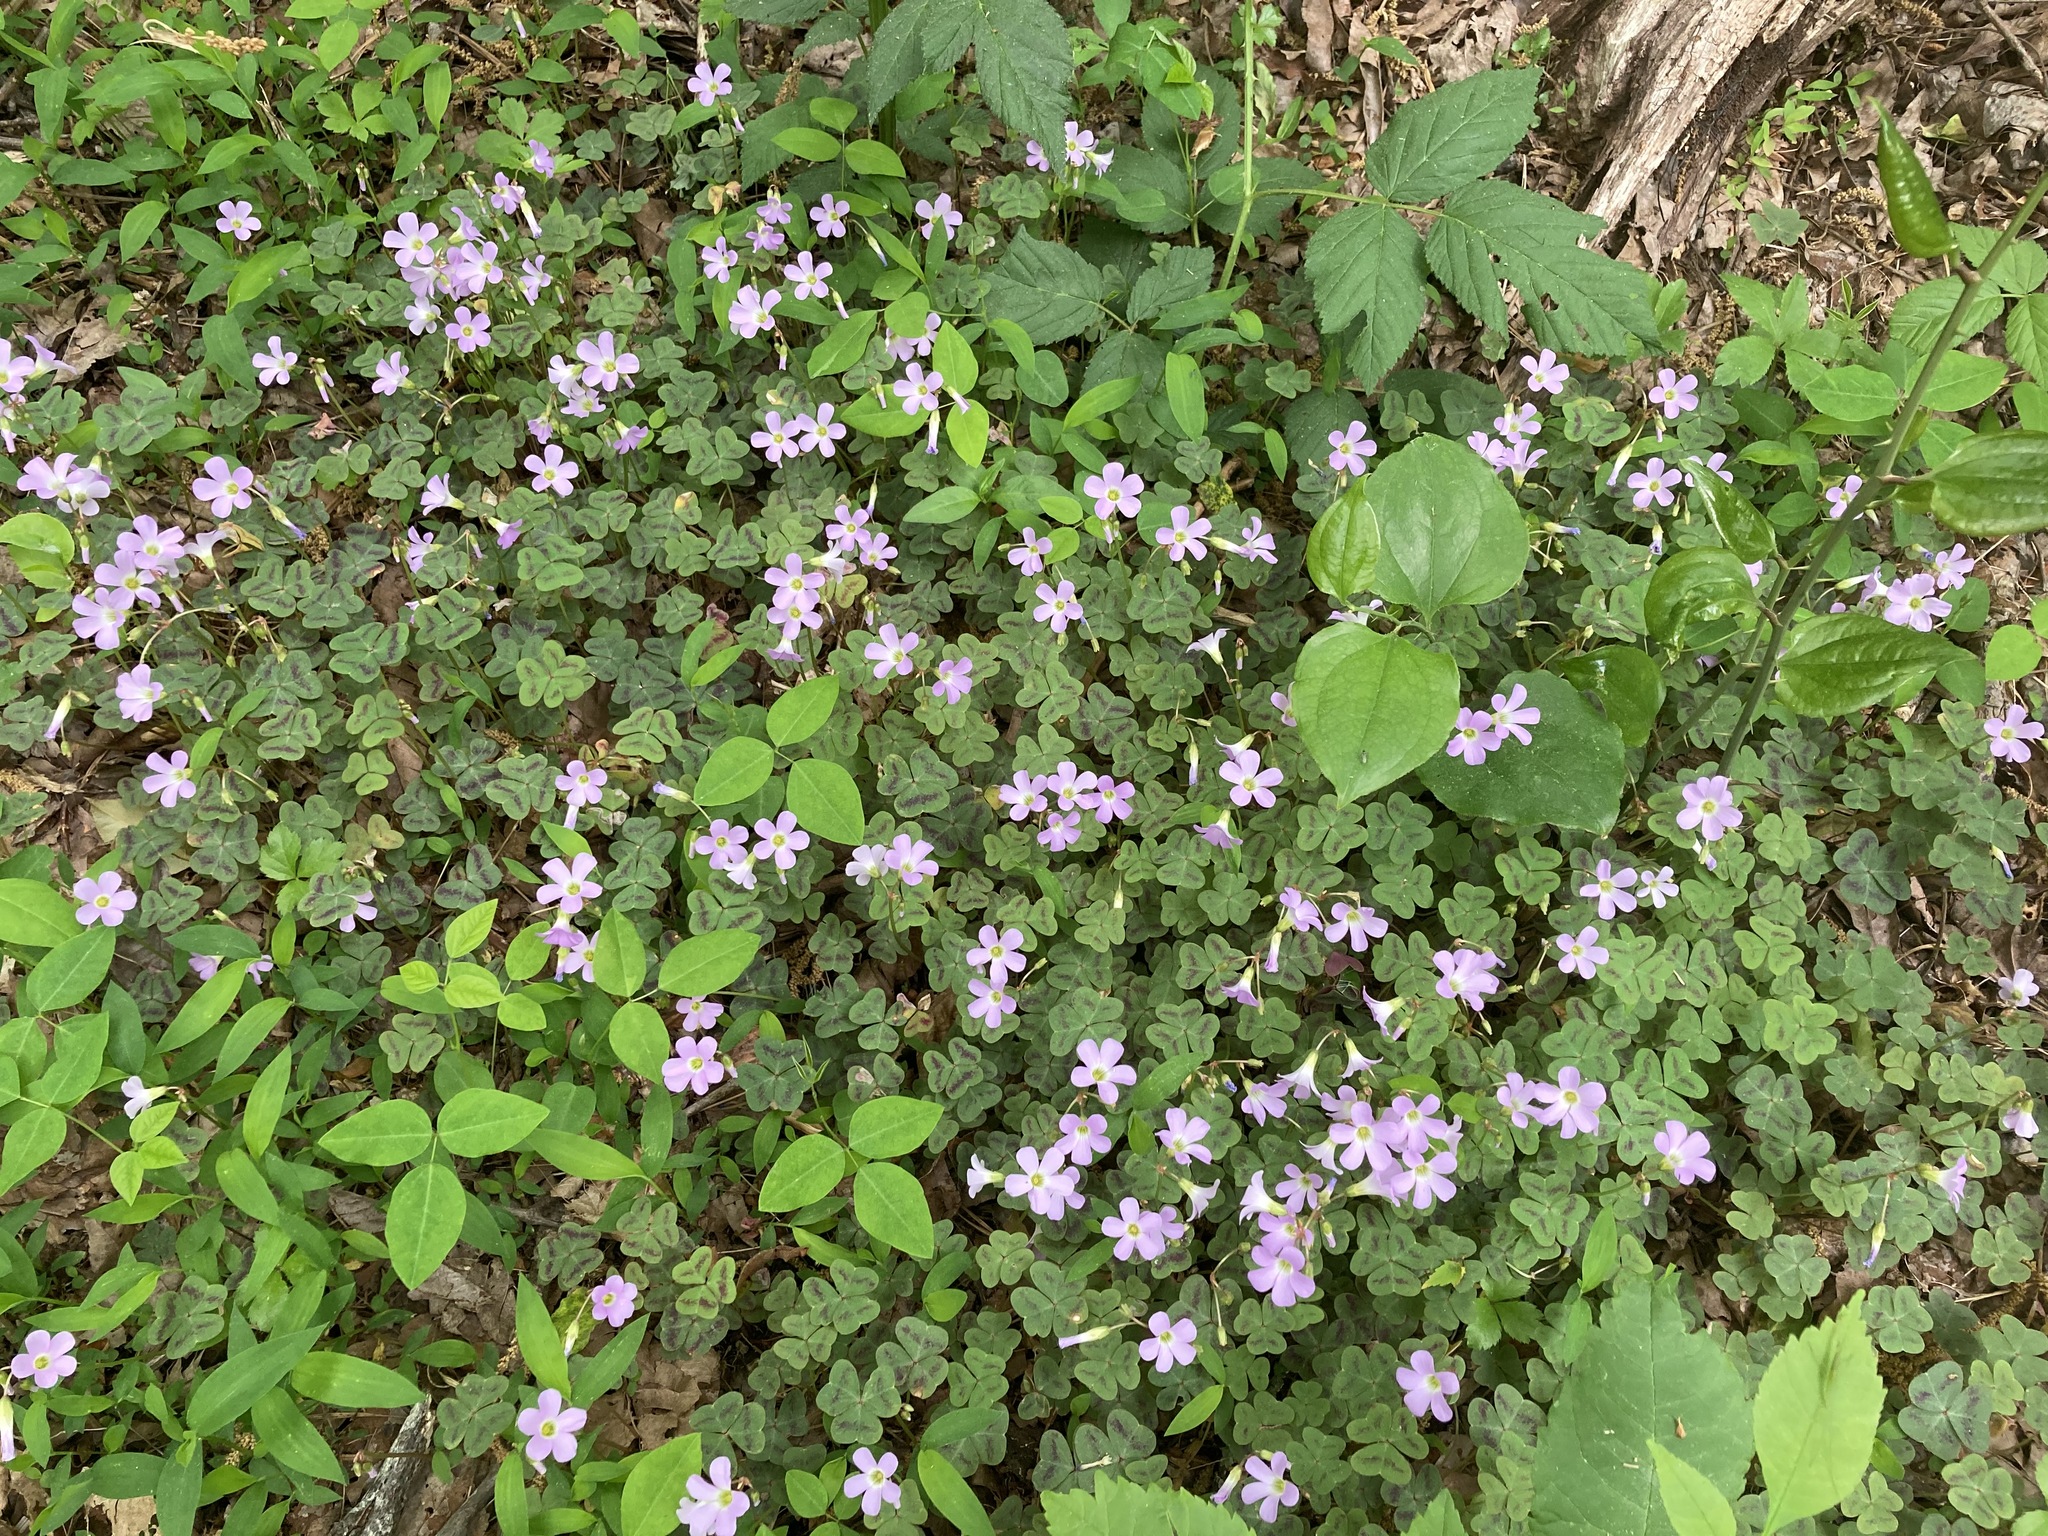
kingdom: Plantae
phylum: Tracheophyta
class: Magnoliopsida
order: Oxalidales
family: Oxalidaceae
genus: Oxalis
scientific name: Oxalis violacea
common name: Violet wood-sorrel
